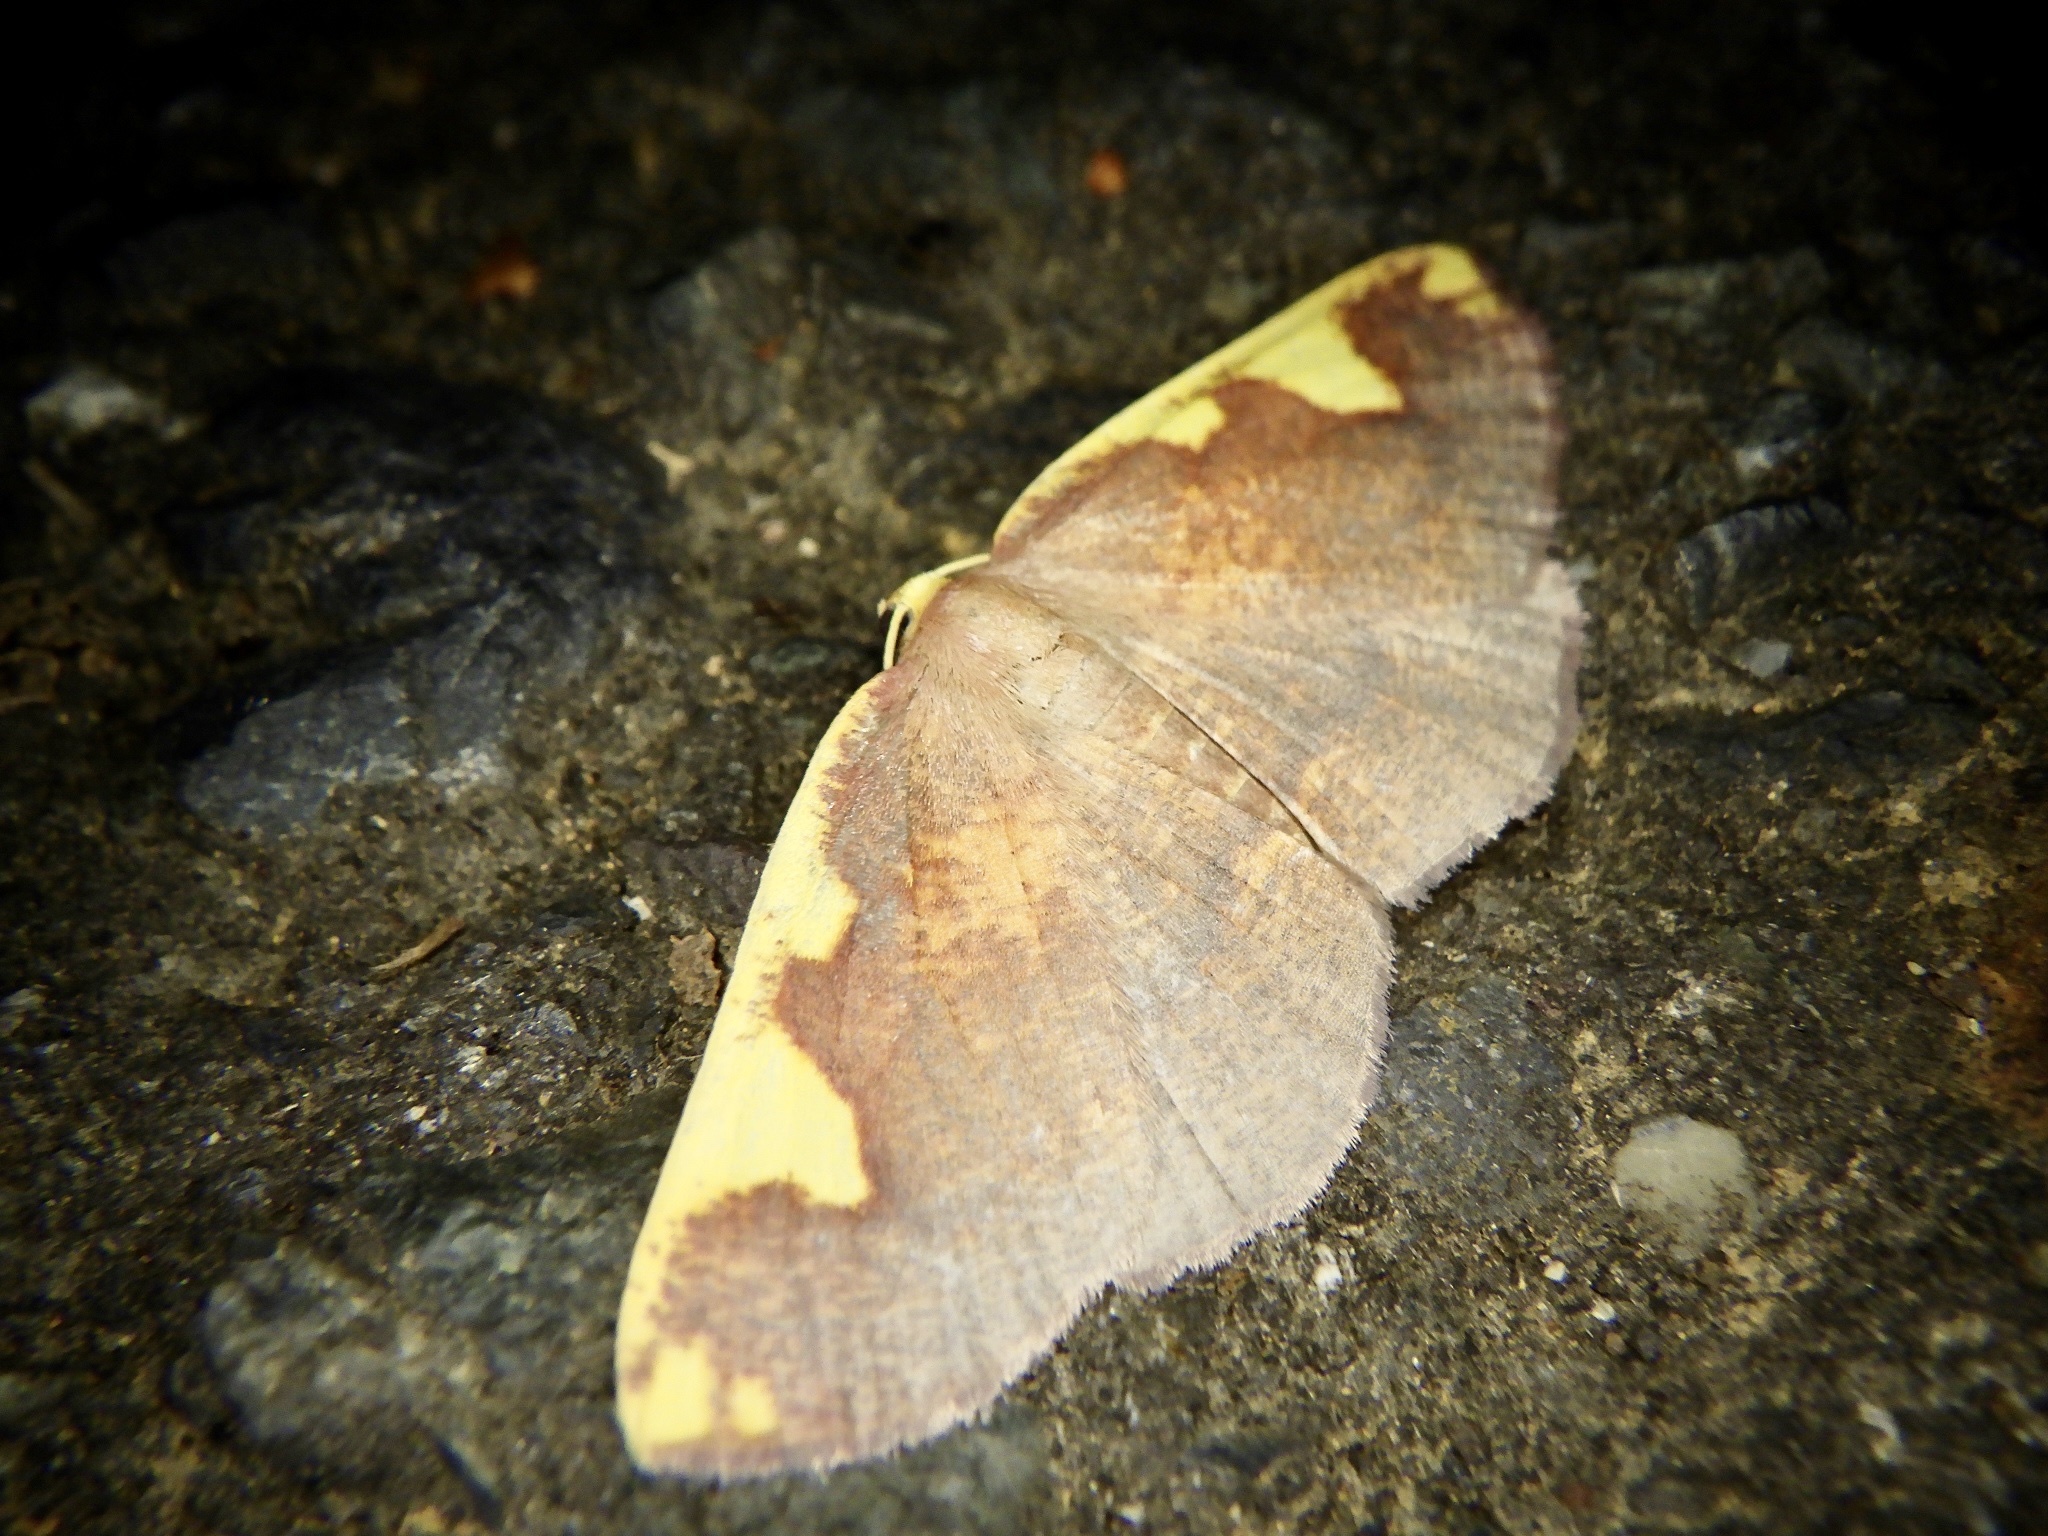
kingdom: Animalia
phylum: Arthropoda
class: Insecta
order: Lepidoptera
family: Geometridae
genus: Nothomiza
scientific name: Nothomiza formosa
